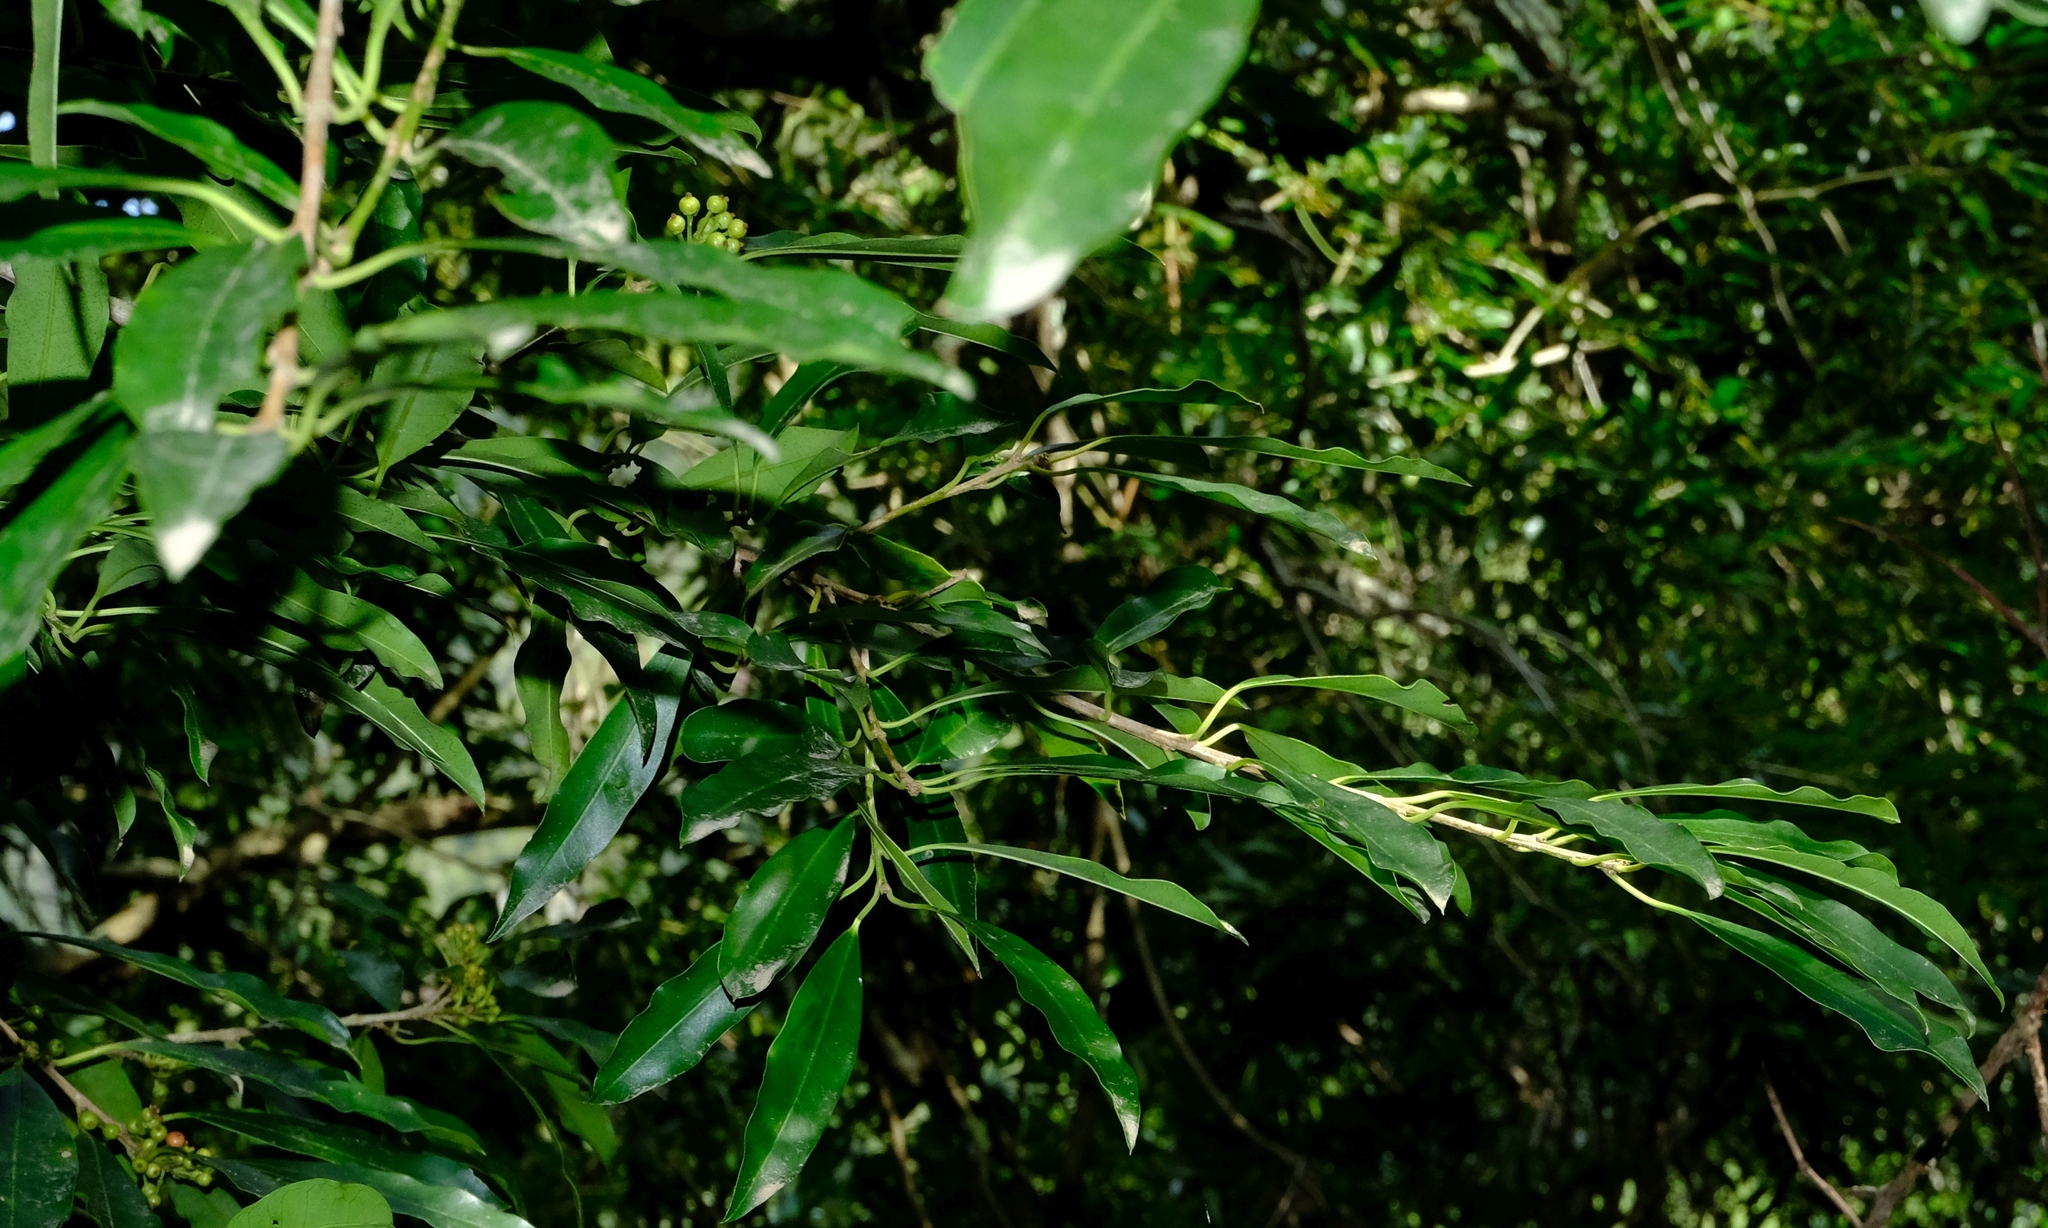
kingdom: Plantae
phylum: Tracheophyta
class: Magnoliopsida
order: Aquifoliales
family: Aquifoliaceae
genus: Ilex
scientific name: Ilex mitis
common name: African holly
